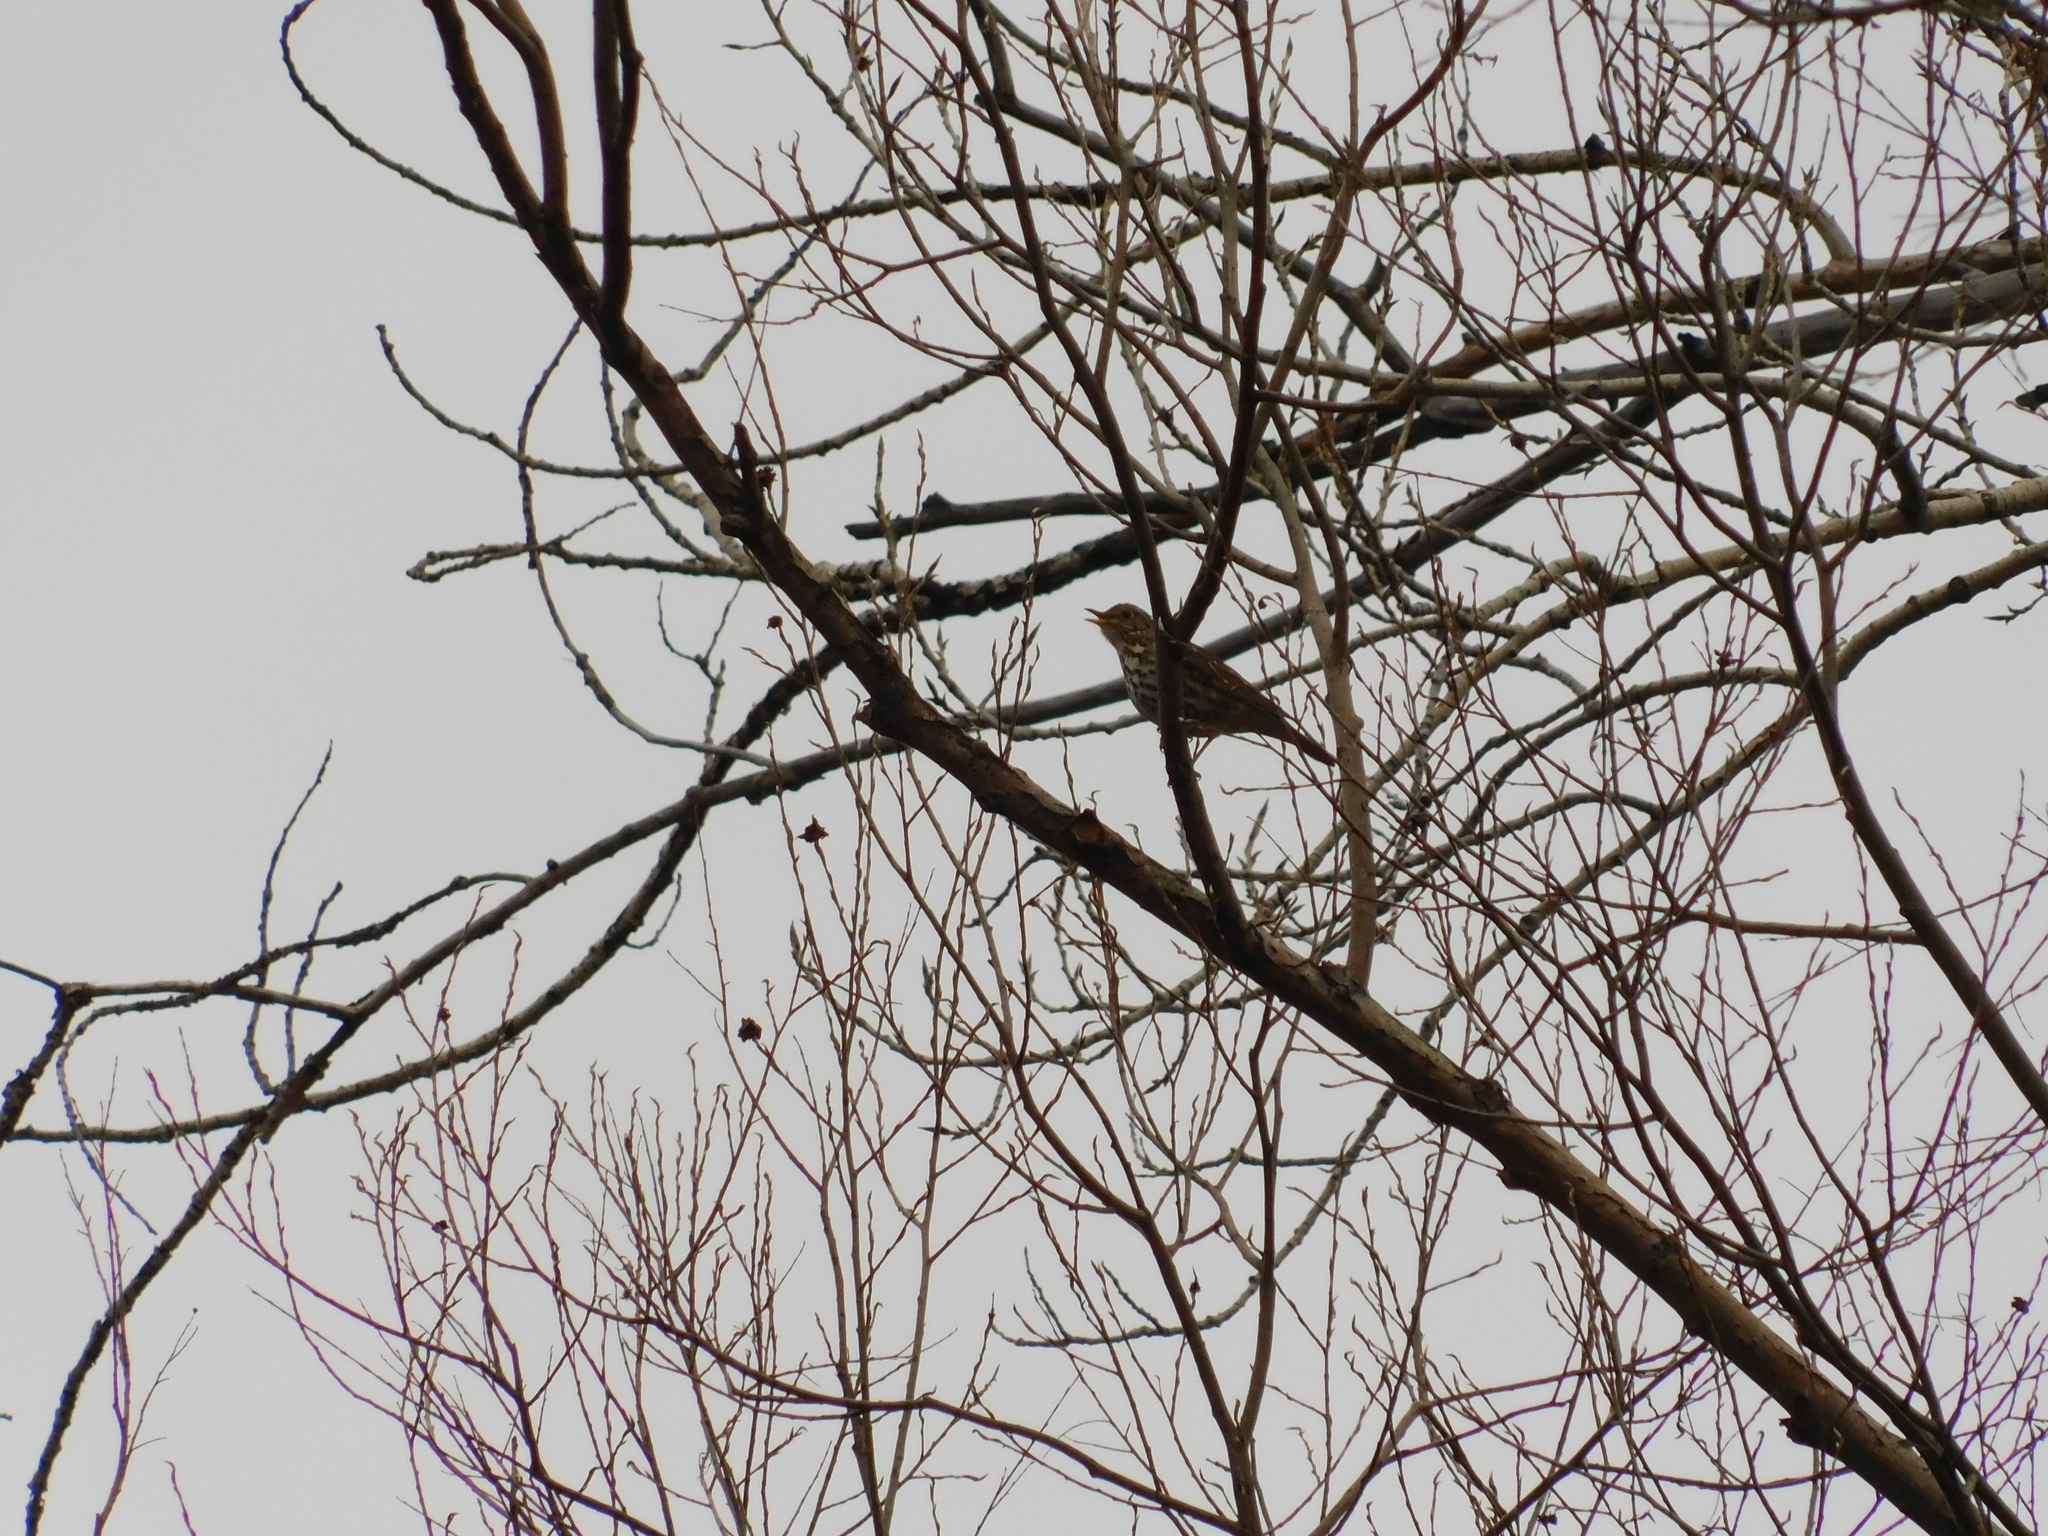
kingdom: Animalia
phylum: Chordata
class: Aves
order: Passeriformes
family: Turdidae
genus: Turdus
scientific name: Turdus philomelos
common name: Song thrush
